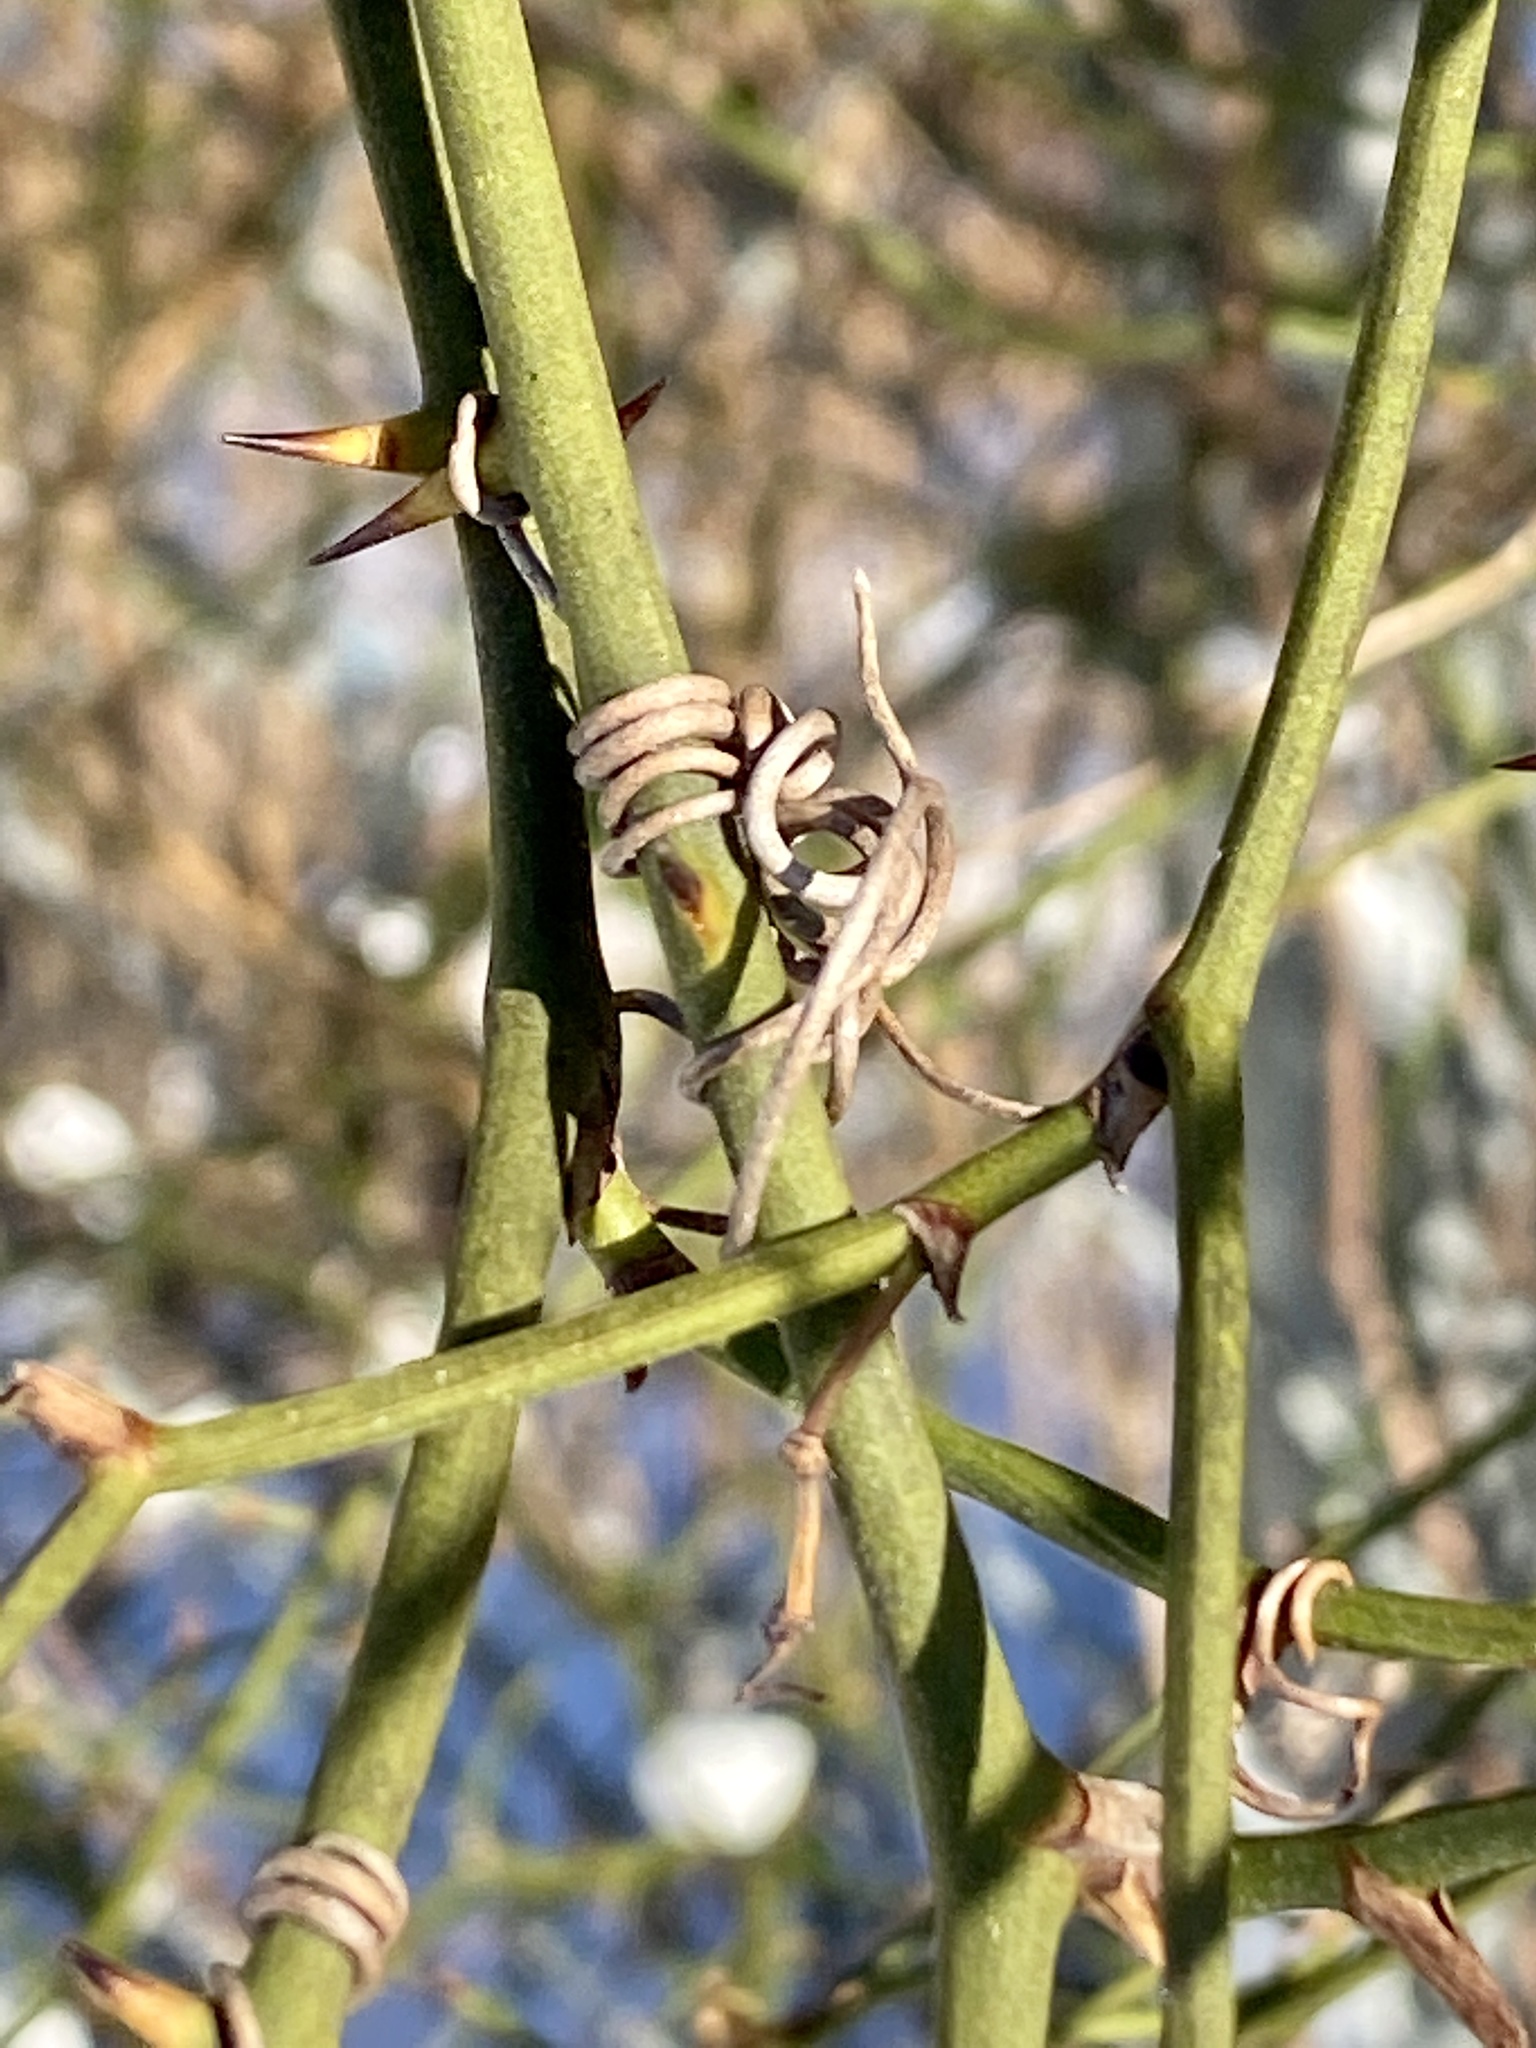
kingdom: Plantae
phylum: Tracheophyta
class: Liliopsida
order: Liliales
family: Smilacaceae
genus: Smilax
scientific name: Smilax rotundifolia
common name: Bullbriar
